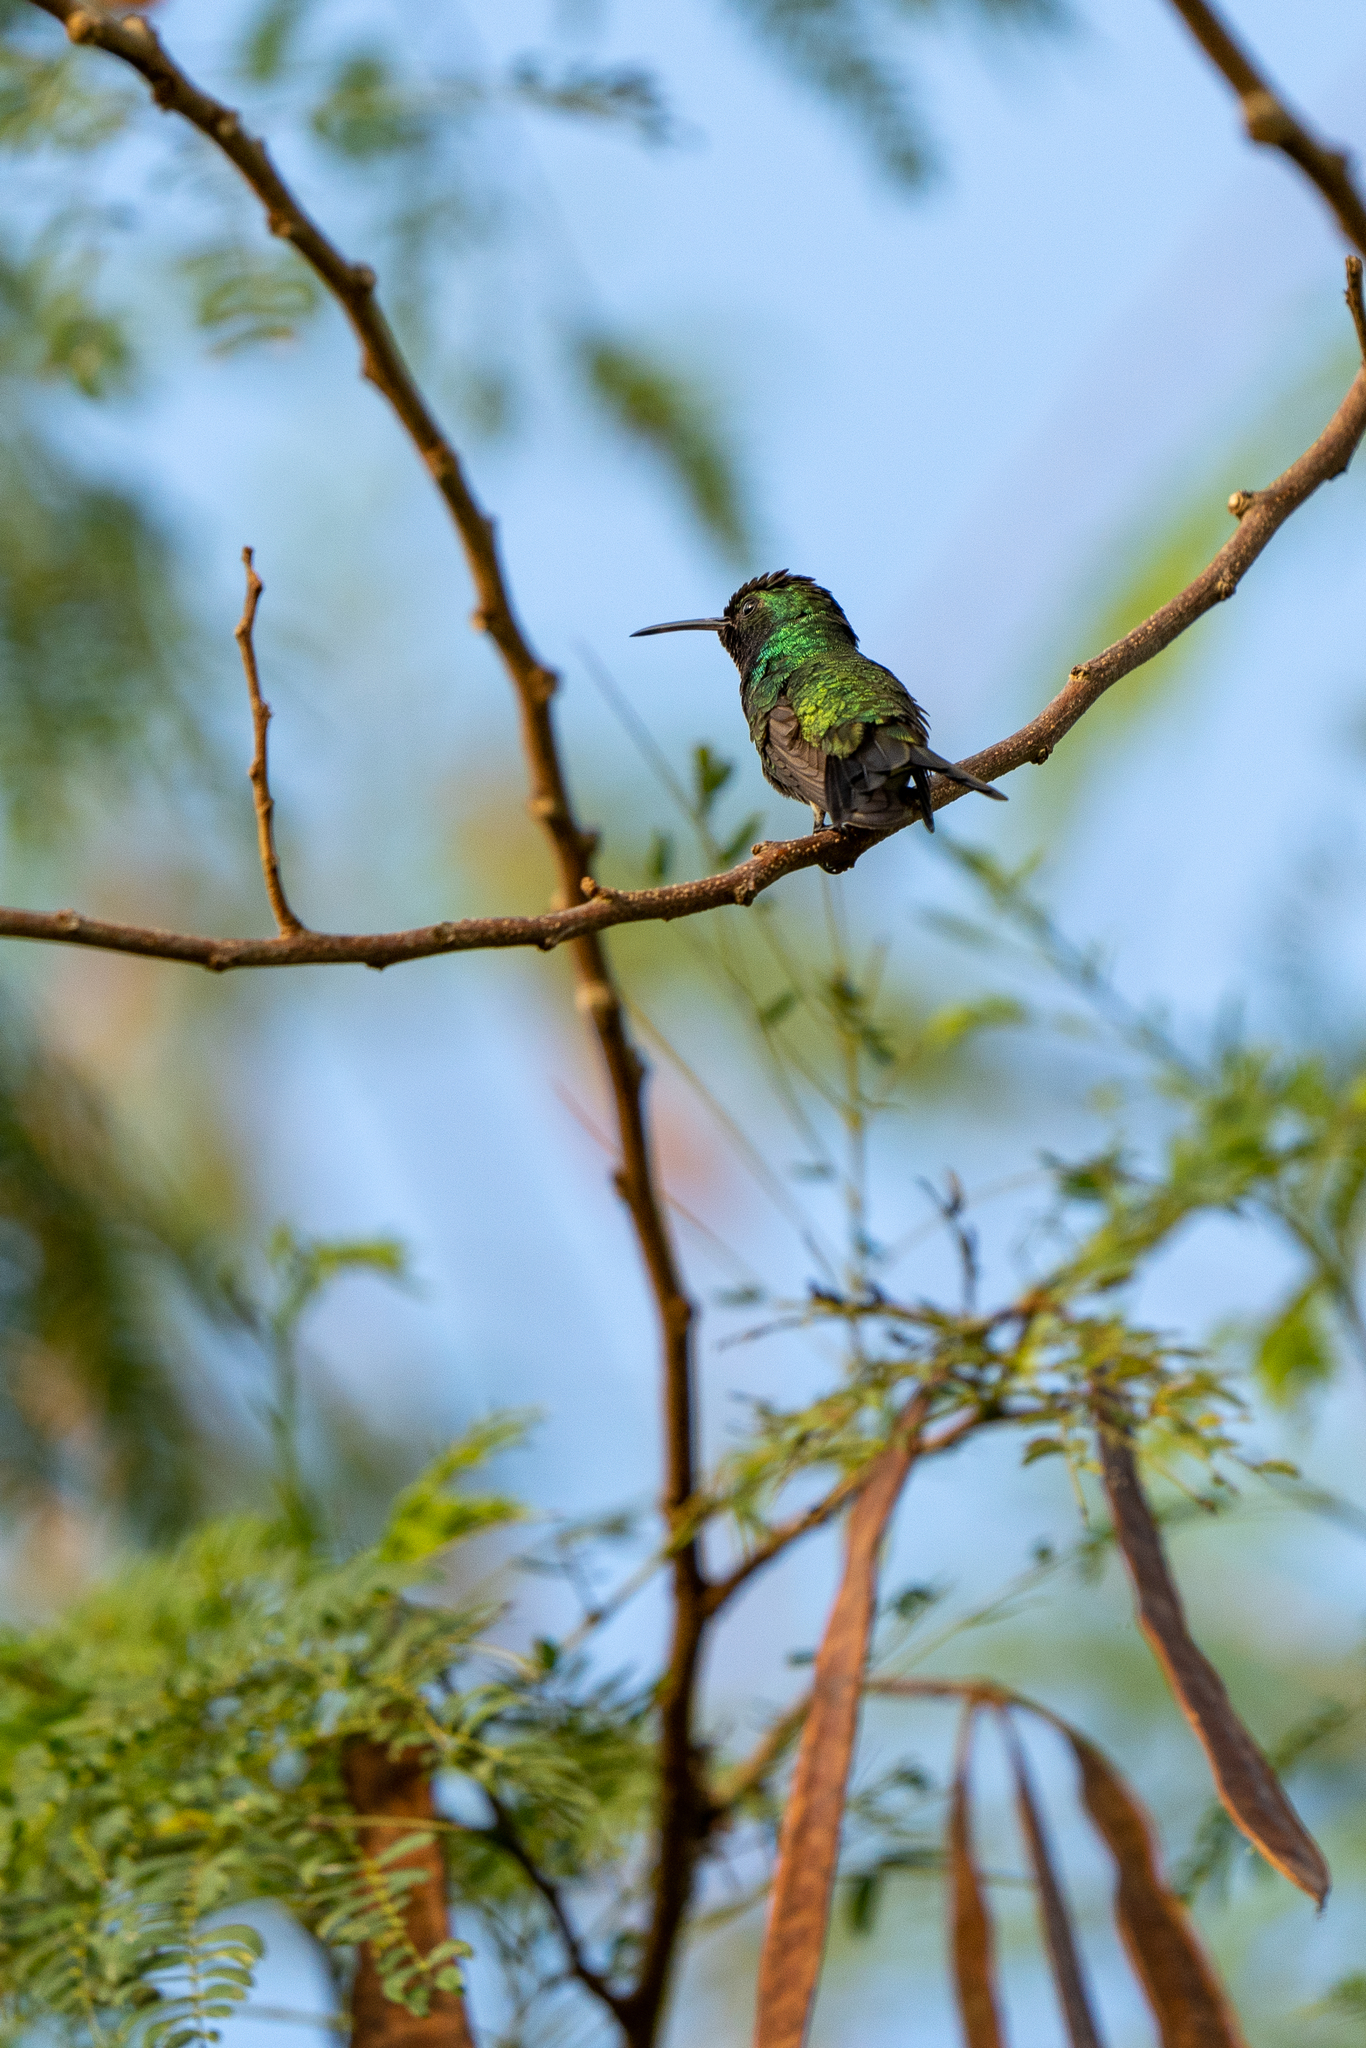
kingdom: Animalia
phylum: Chordata
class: Aves
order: Apodiformes
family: Trochilidae
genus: Chlorostilbon
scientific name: Chlorostilbon assimilis
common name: Garden emerald
